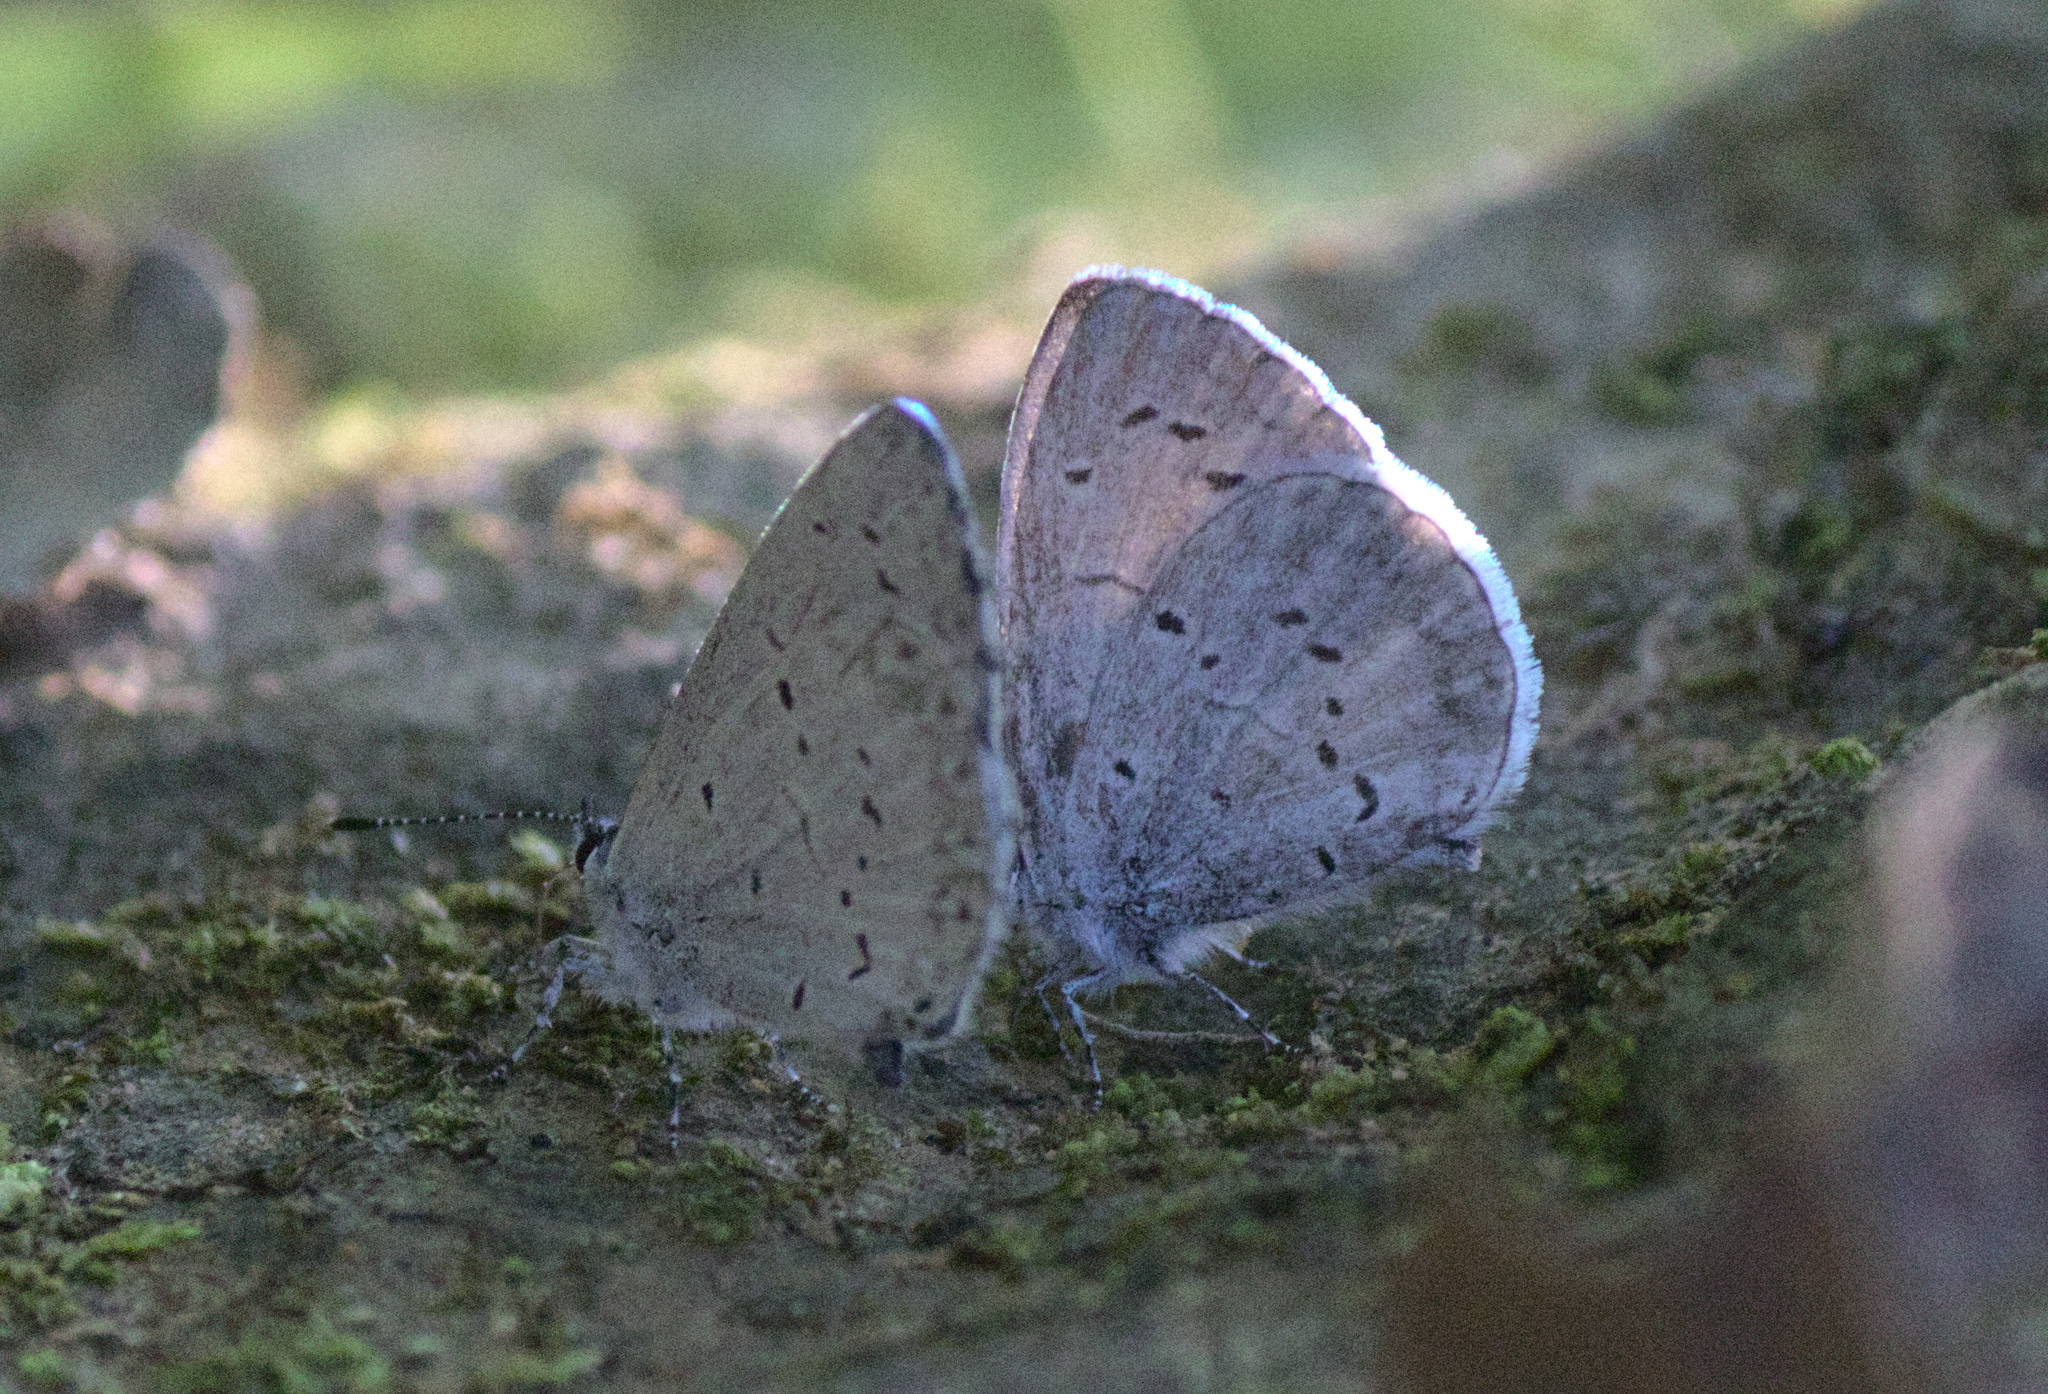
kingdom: Animalia
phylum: Arthropoda
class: Insecta
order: Lepidoptera
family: Lycaenidae
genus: Cyaniris
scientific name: Cyaniris neglecta
